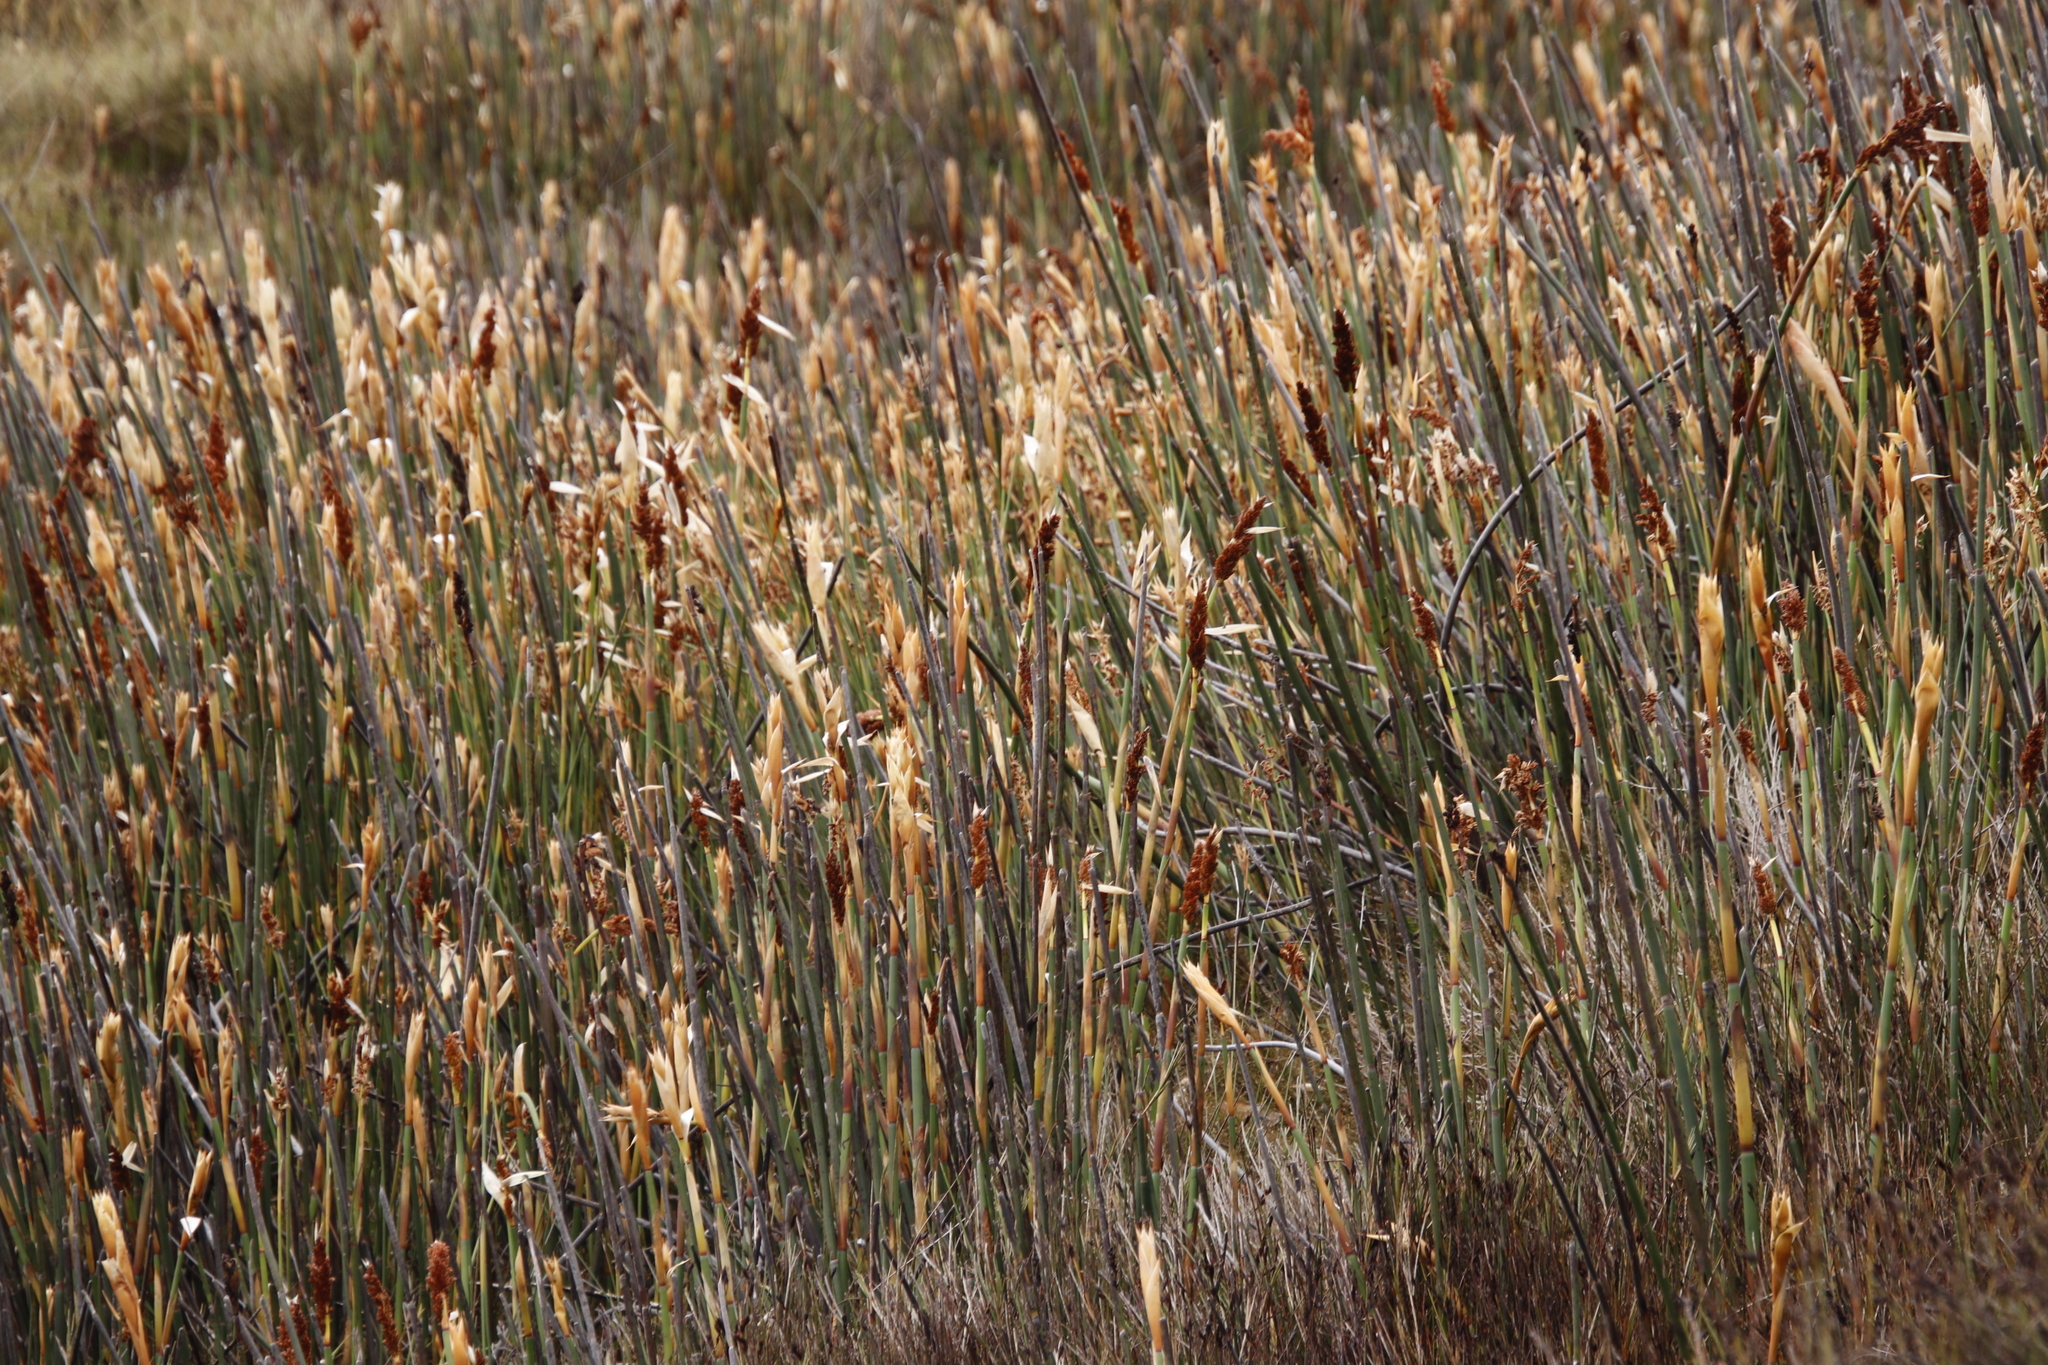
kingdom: Plantae
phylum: Tracheophyta
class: Liliopsida
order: Poales
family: Restionaceae
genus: Elegia
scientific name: Elegia mucronata
